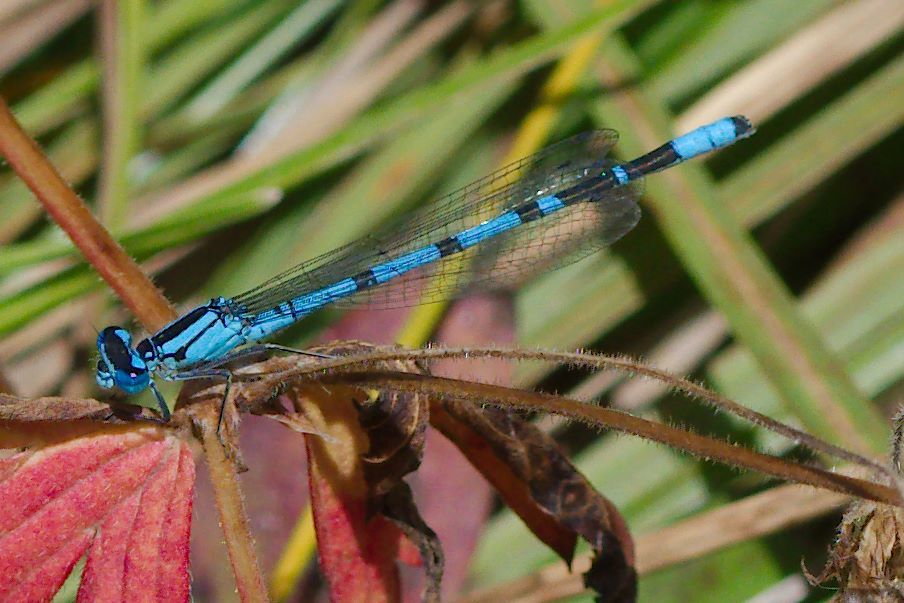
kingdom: Animalia
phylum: Arthropoda
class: Insecta
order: Odonata
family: Coenagrionidae
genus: Enallagma
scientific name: Enallagma boreale
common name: Boreal bluet
